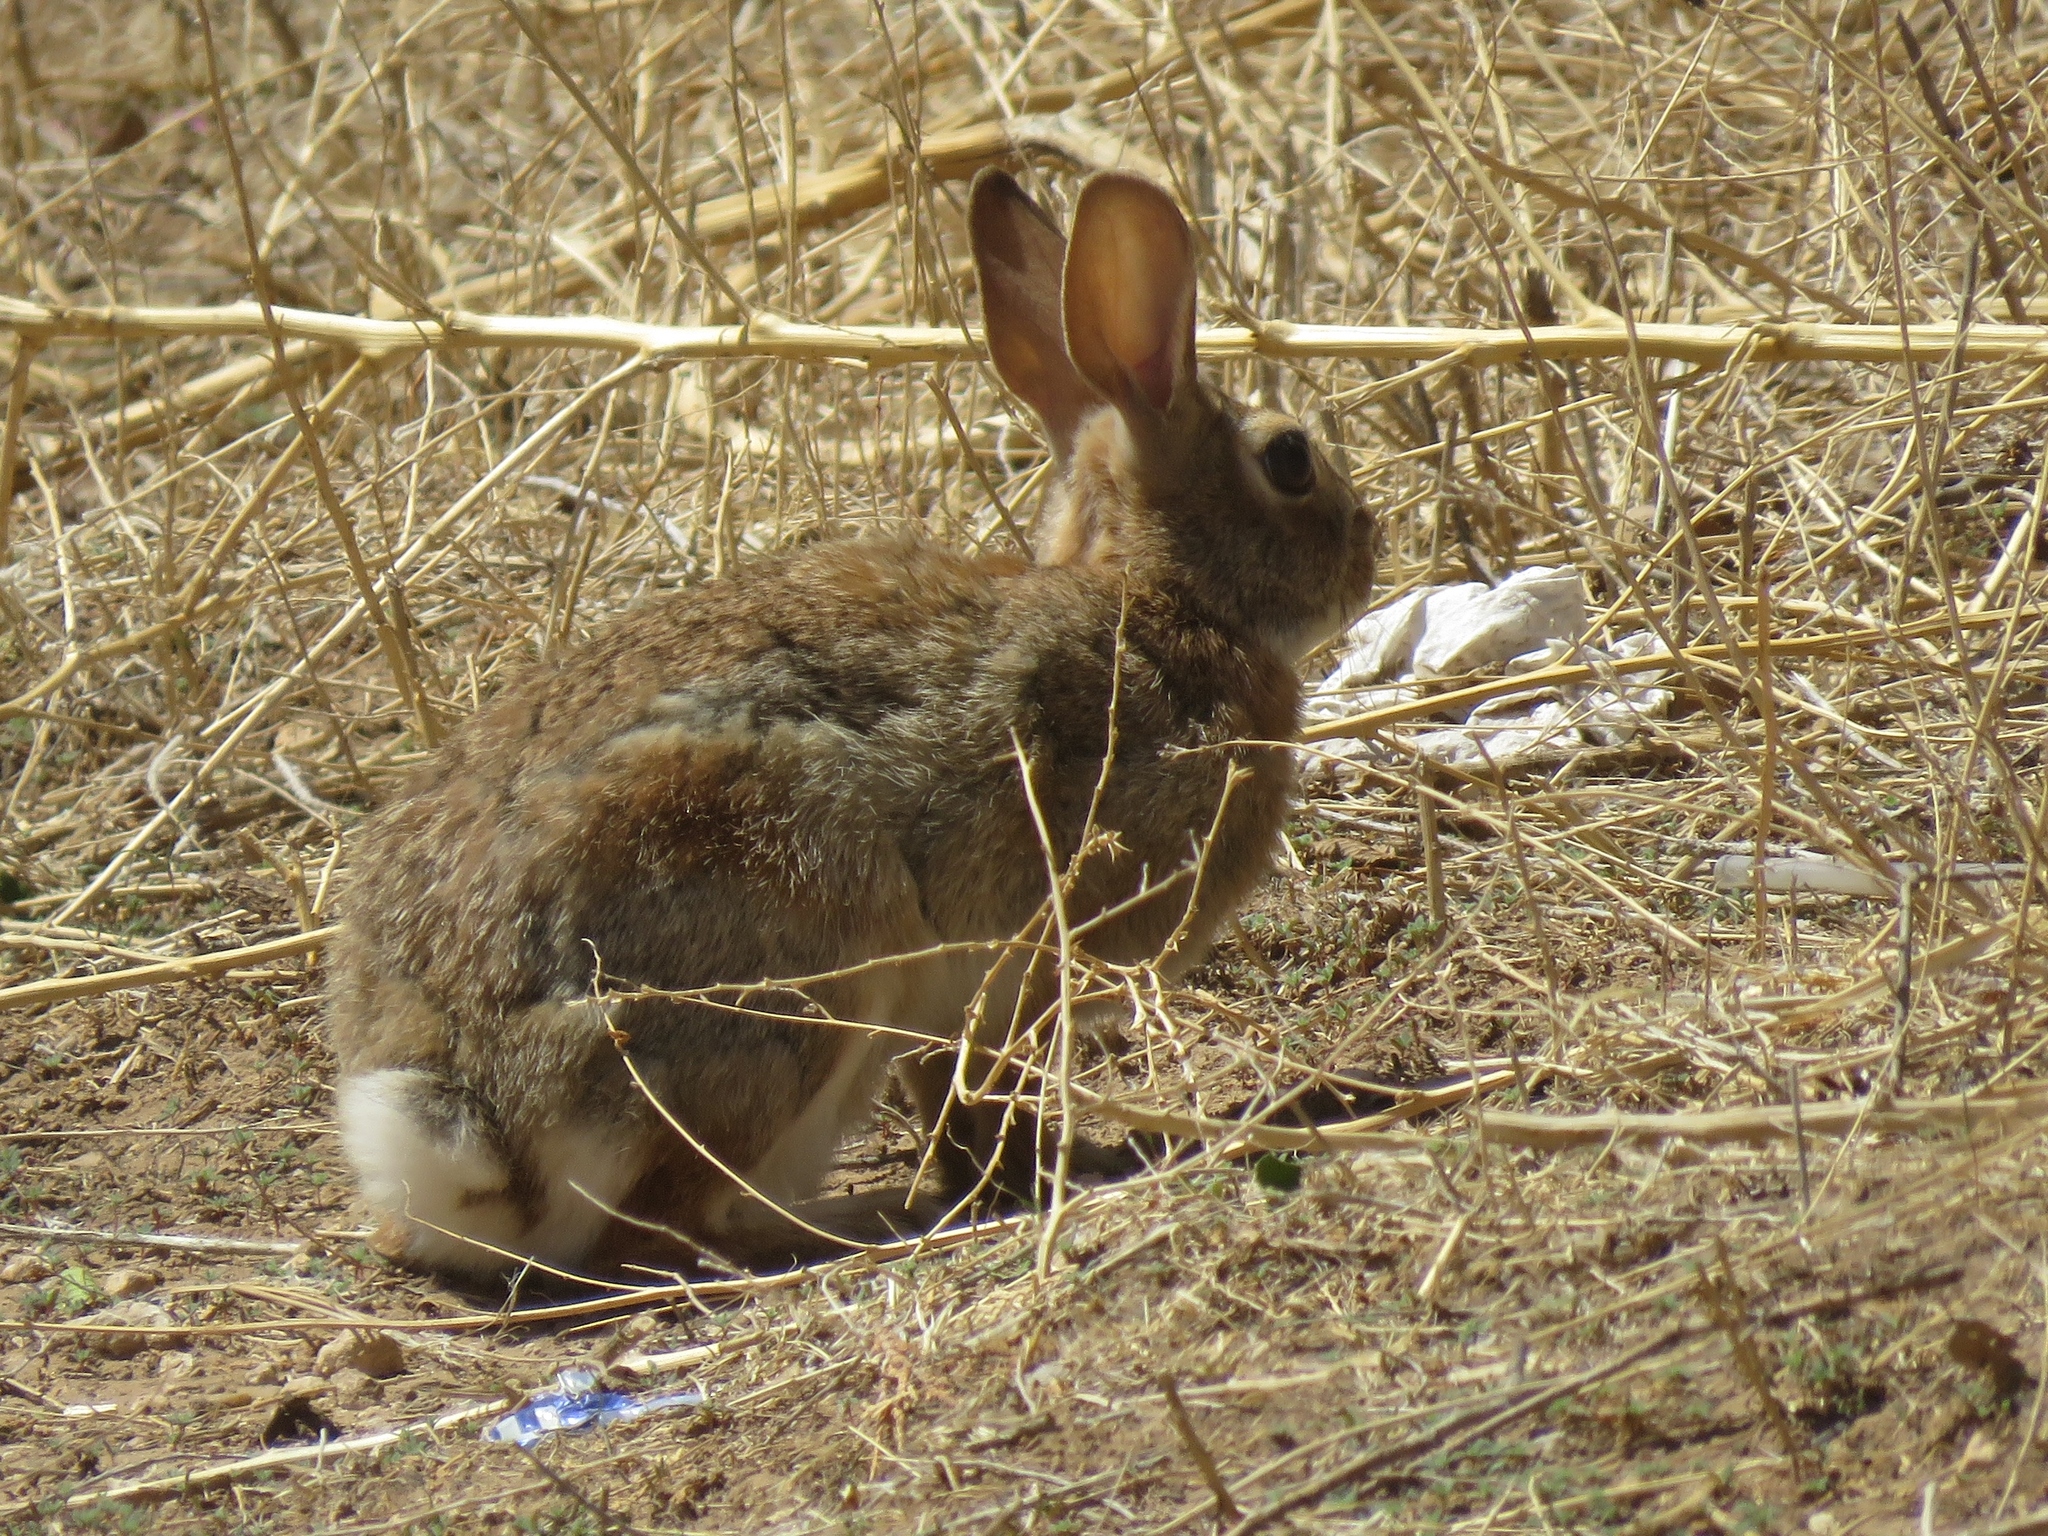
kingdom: Animalia
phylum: Chordata
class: Mammalia
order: Lagomorpha
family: Leporidae
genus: Sylvilagus
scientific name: Sylvilagus audubonii
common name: Desert cottontail
